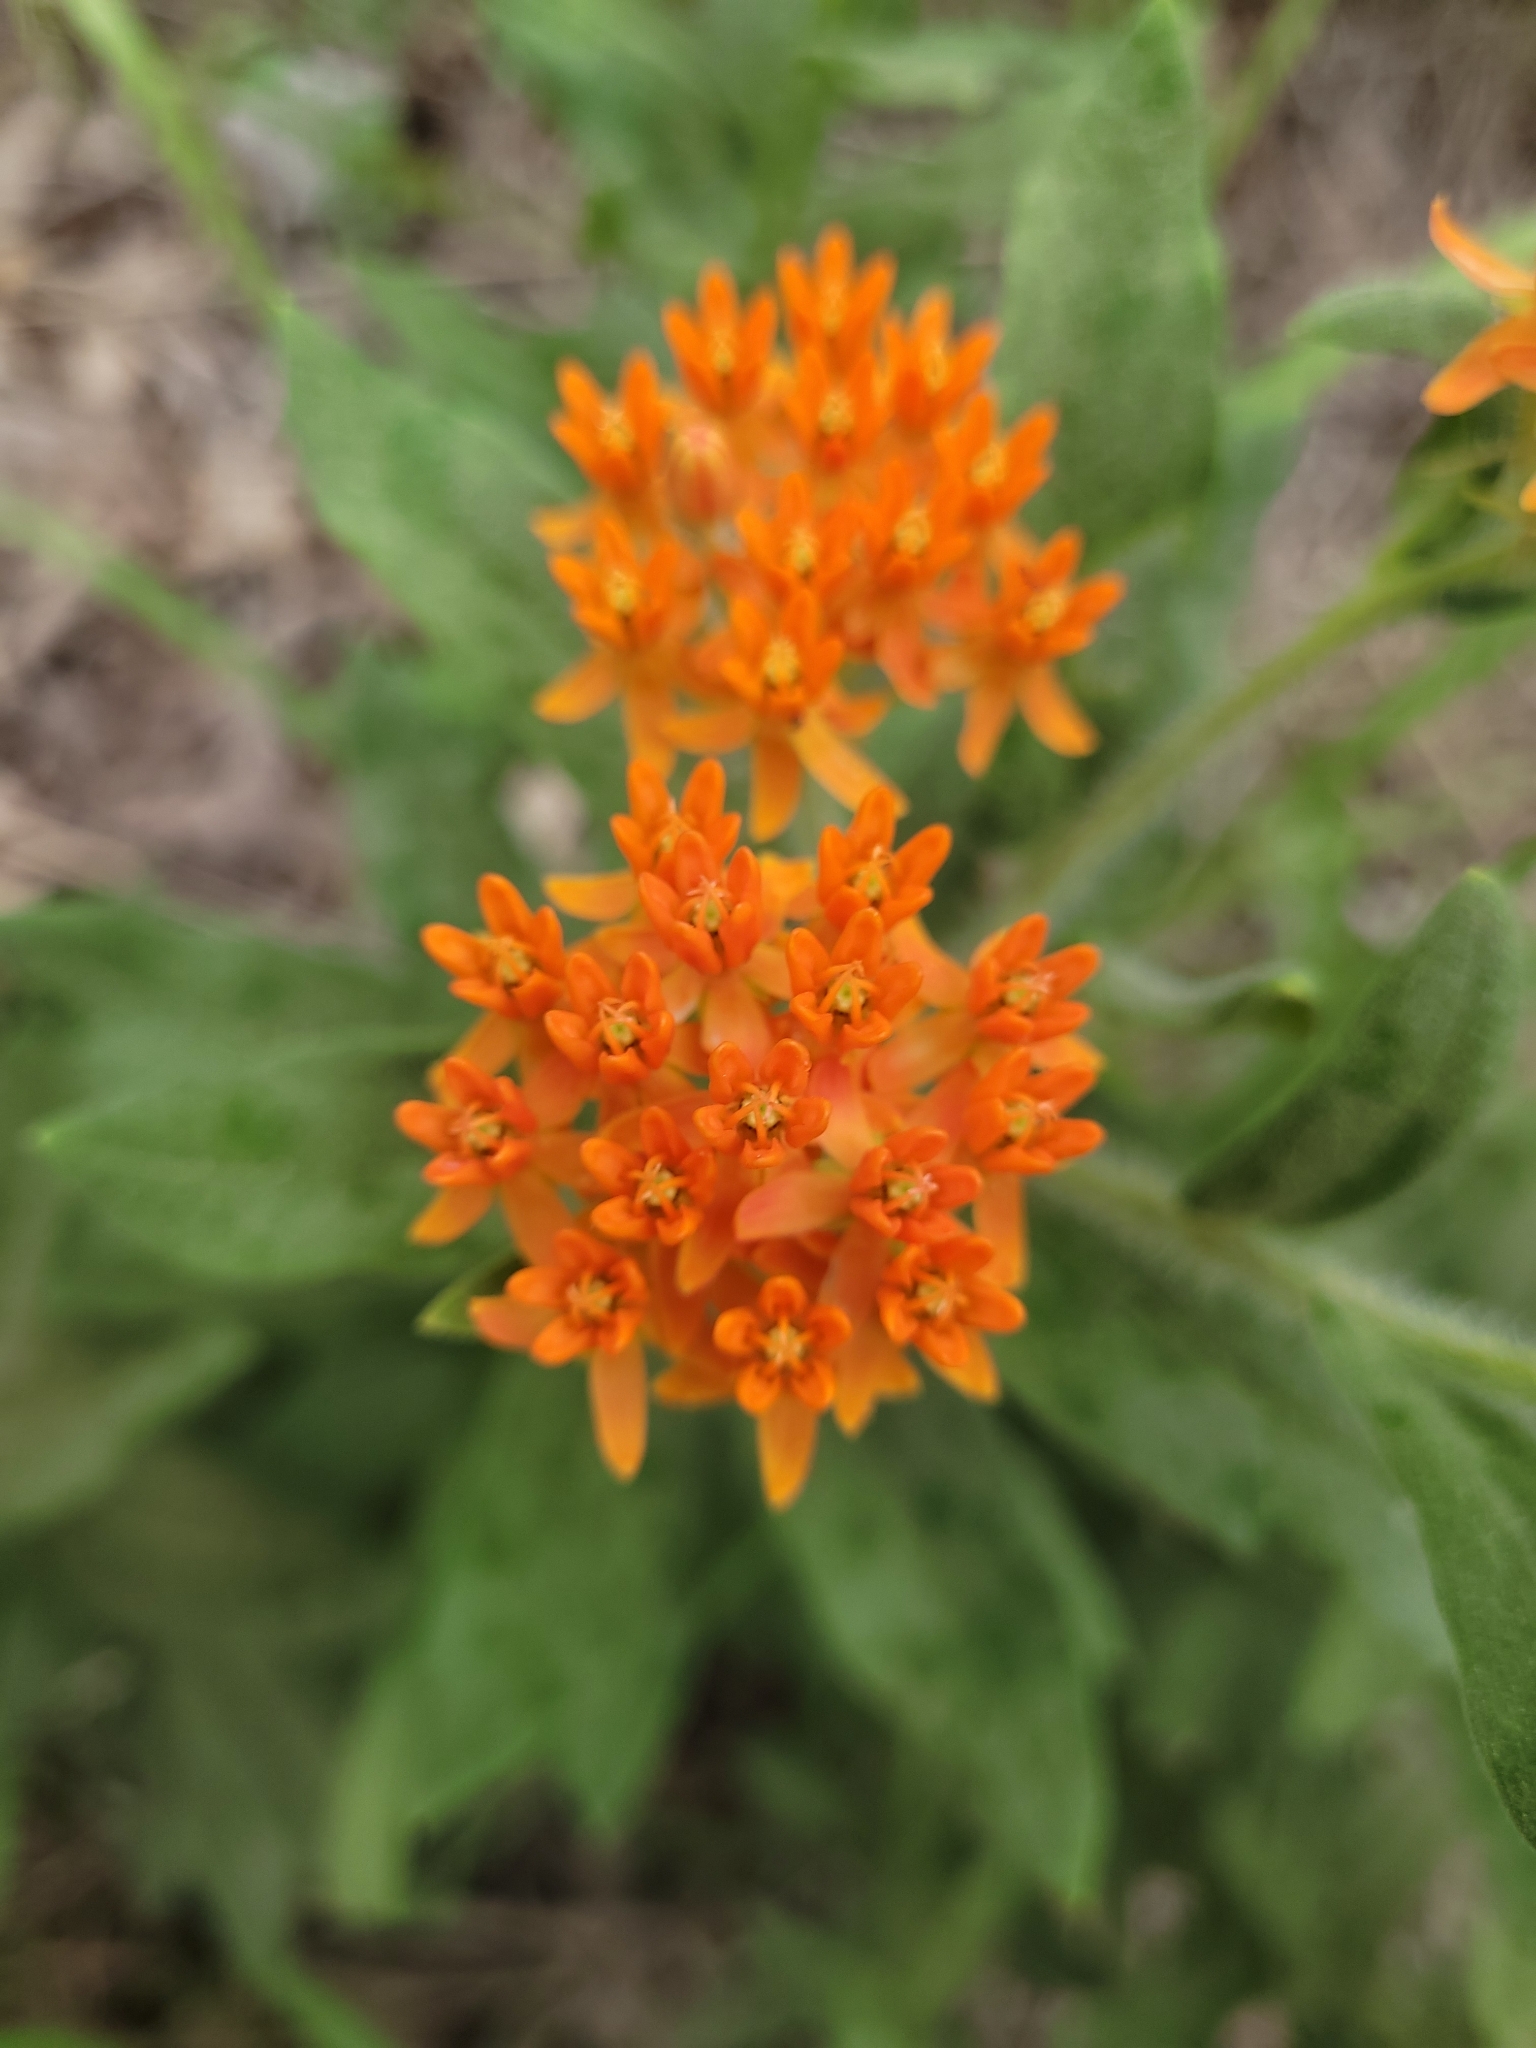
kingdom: Plantae
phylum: Tracheophyta
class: Magnoliopsida
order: Gentianales
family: Apocynaceae
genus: Asclepias
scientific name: Asclepias tuberosa
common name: Butterfly milkweed
